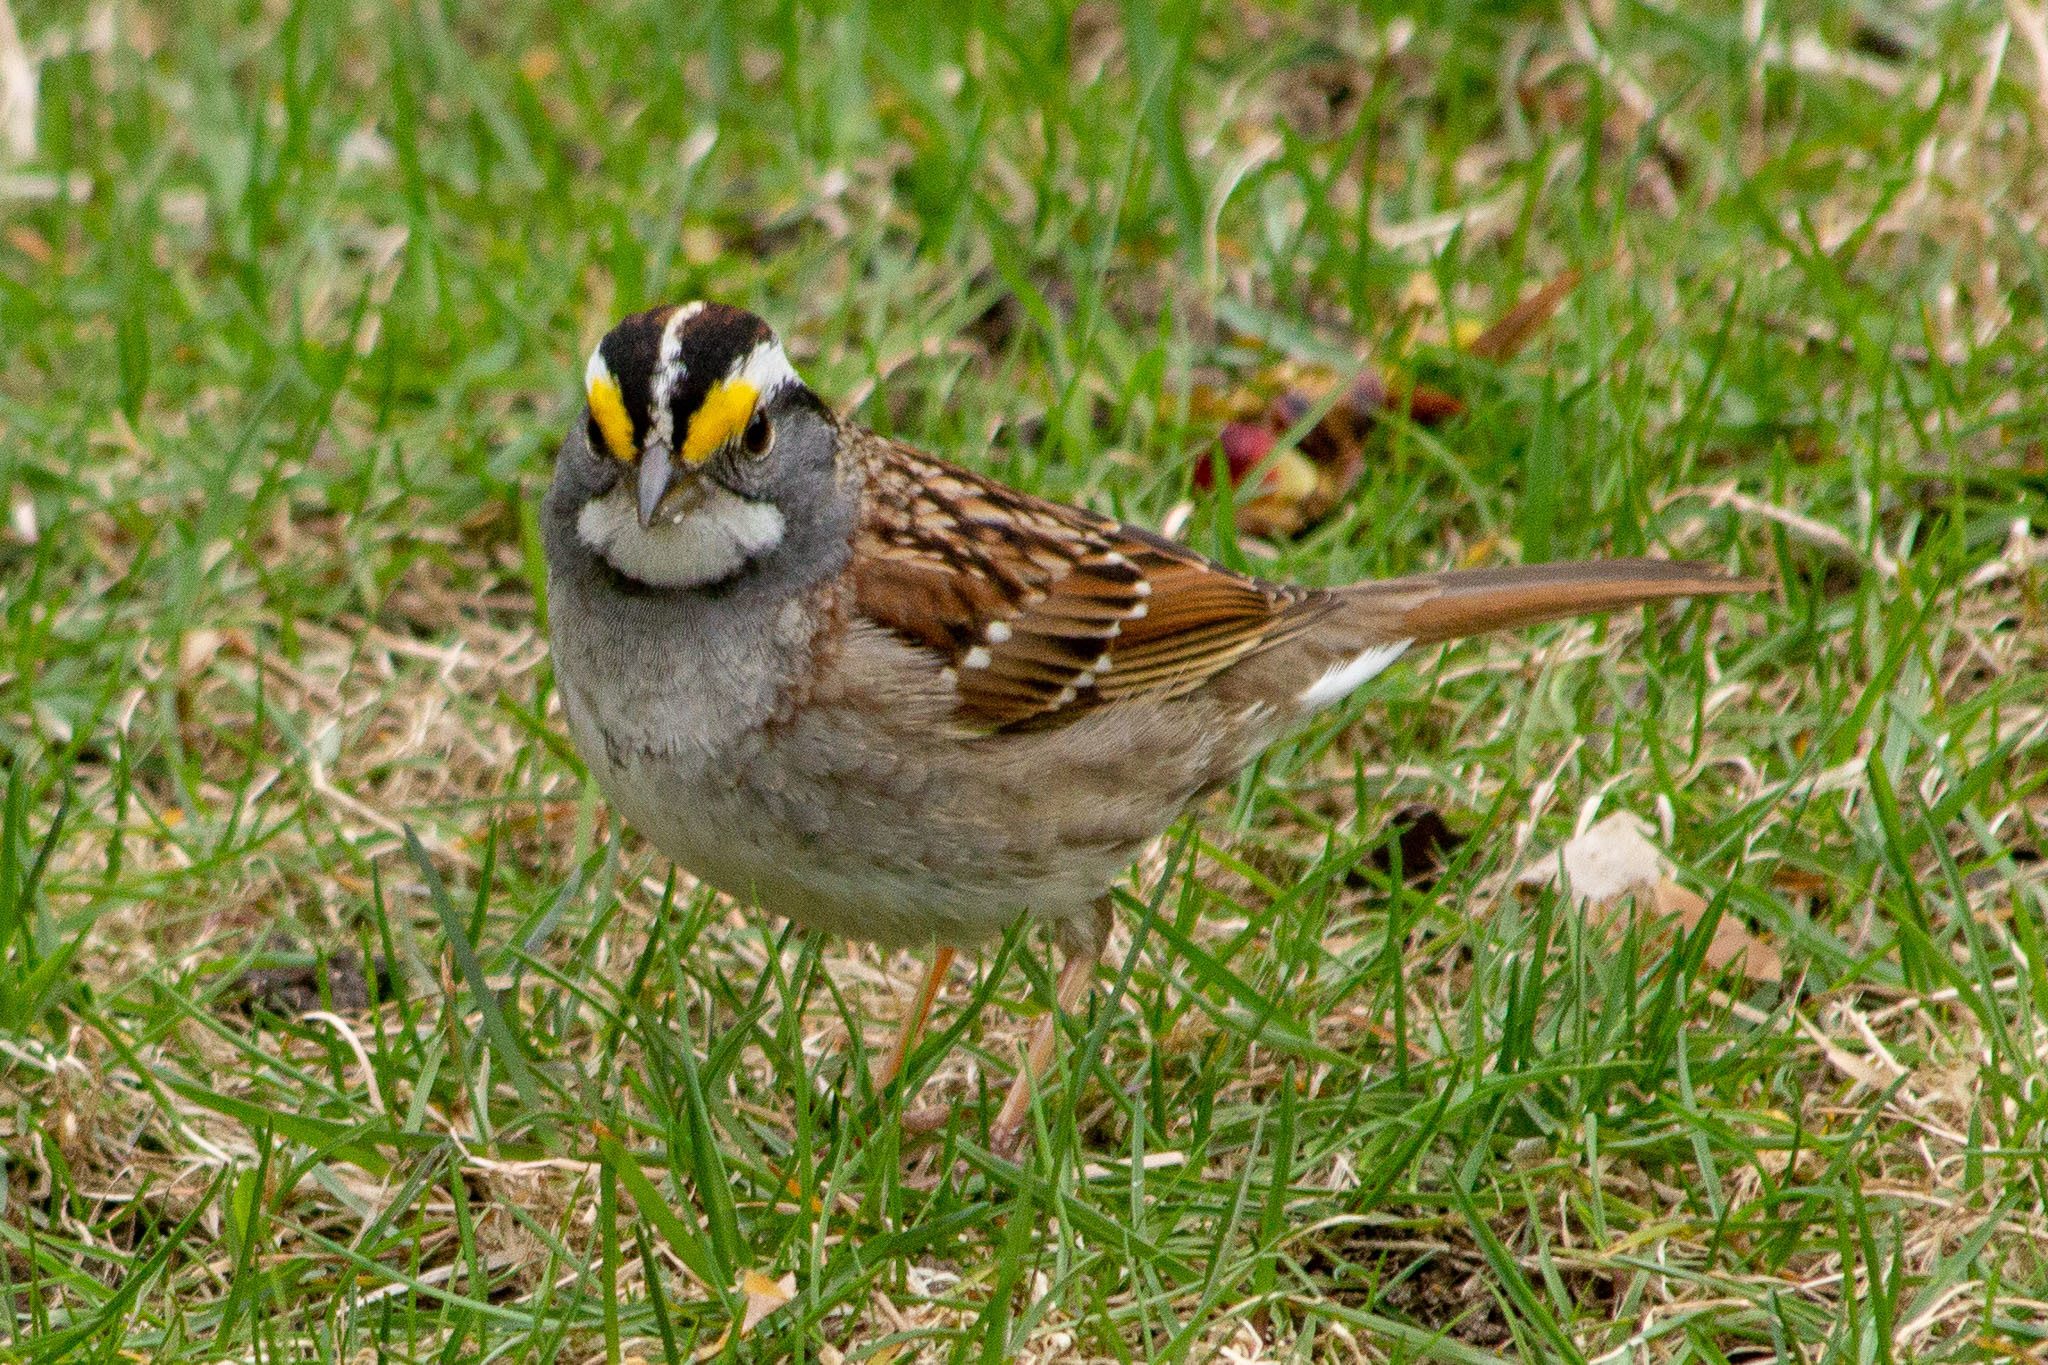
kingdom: Animalia
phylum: Chordata
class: Aves
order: Passeriformes
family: Passerellidae
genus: Zonotrichia
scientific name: Zonotrichia albicollis
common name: White-throated sparrow
